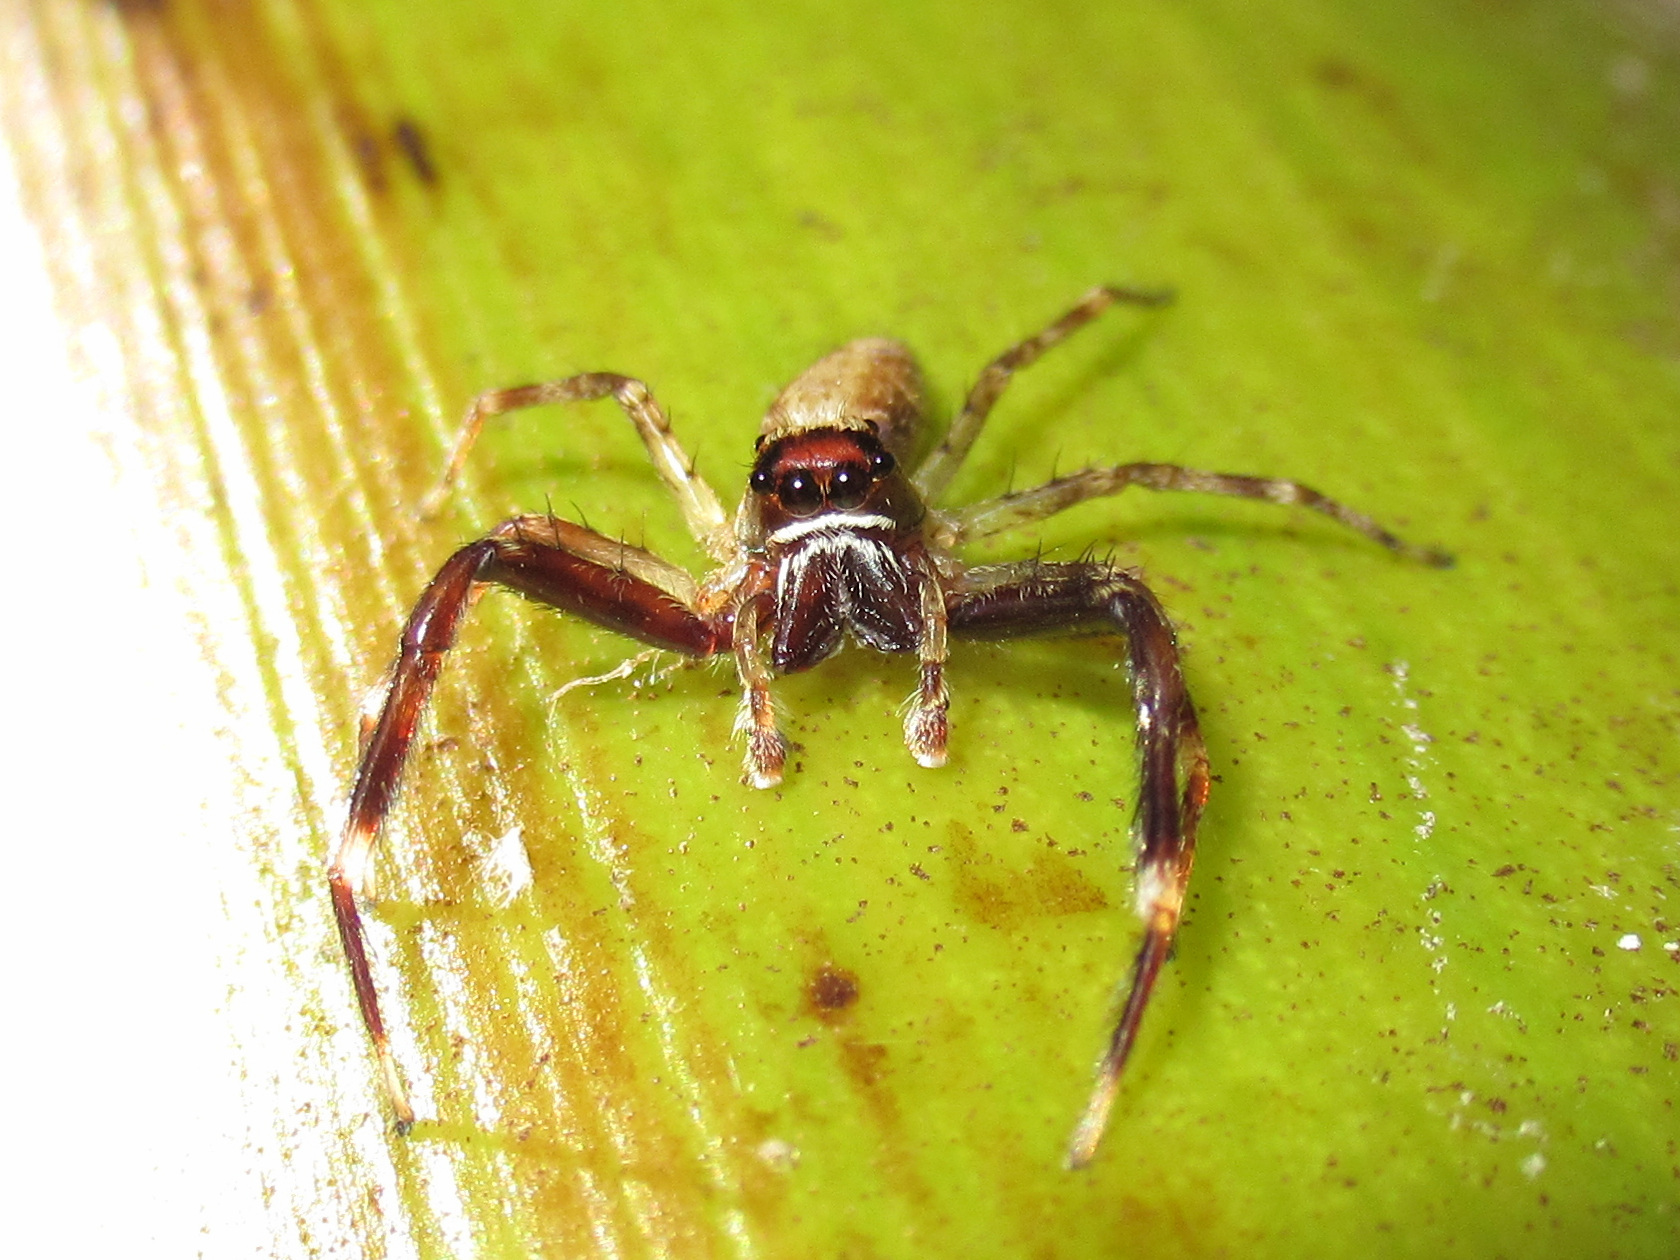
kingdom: Animalia
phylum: Arthropoda
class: Arachnida
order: Araneae
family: Salticidae
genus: Helpis
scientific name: Helpis minitabunda
